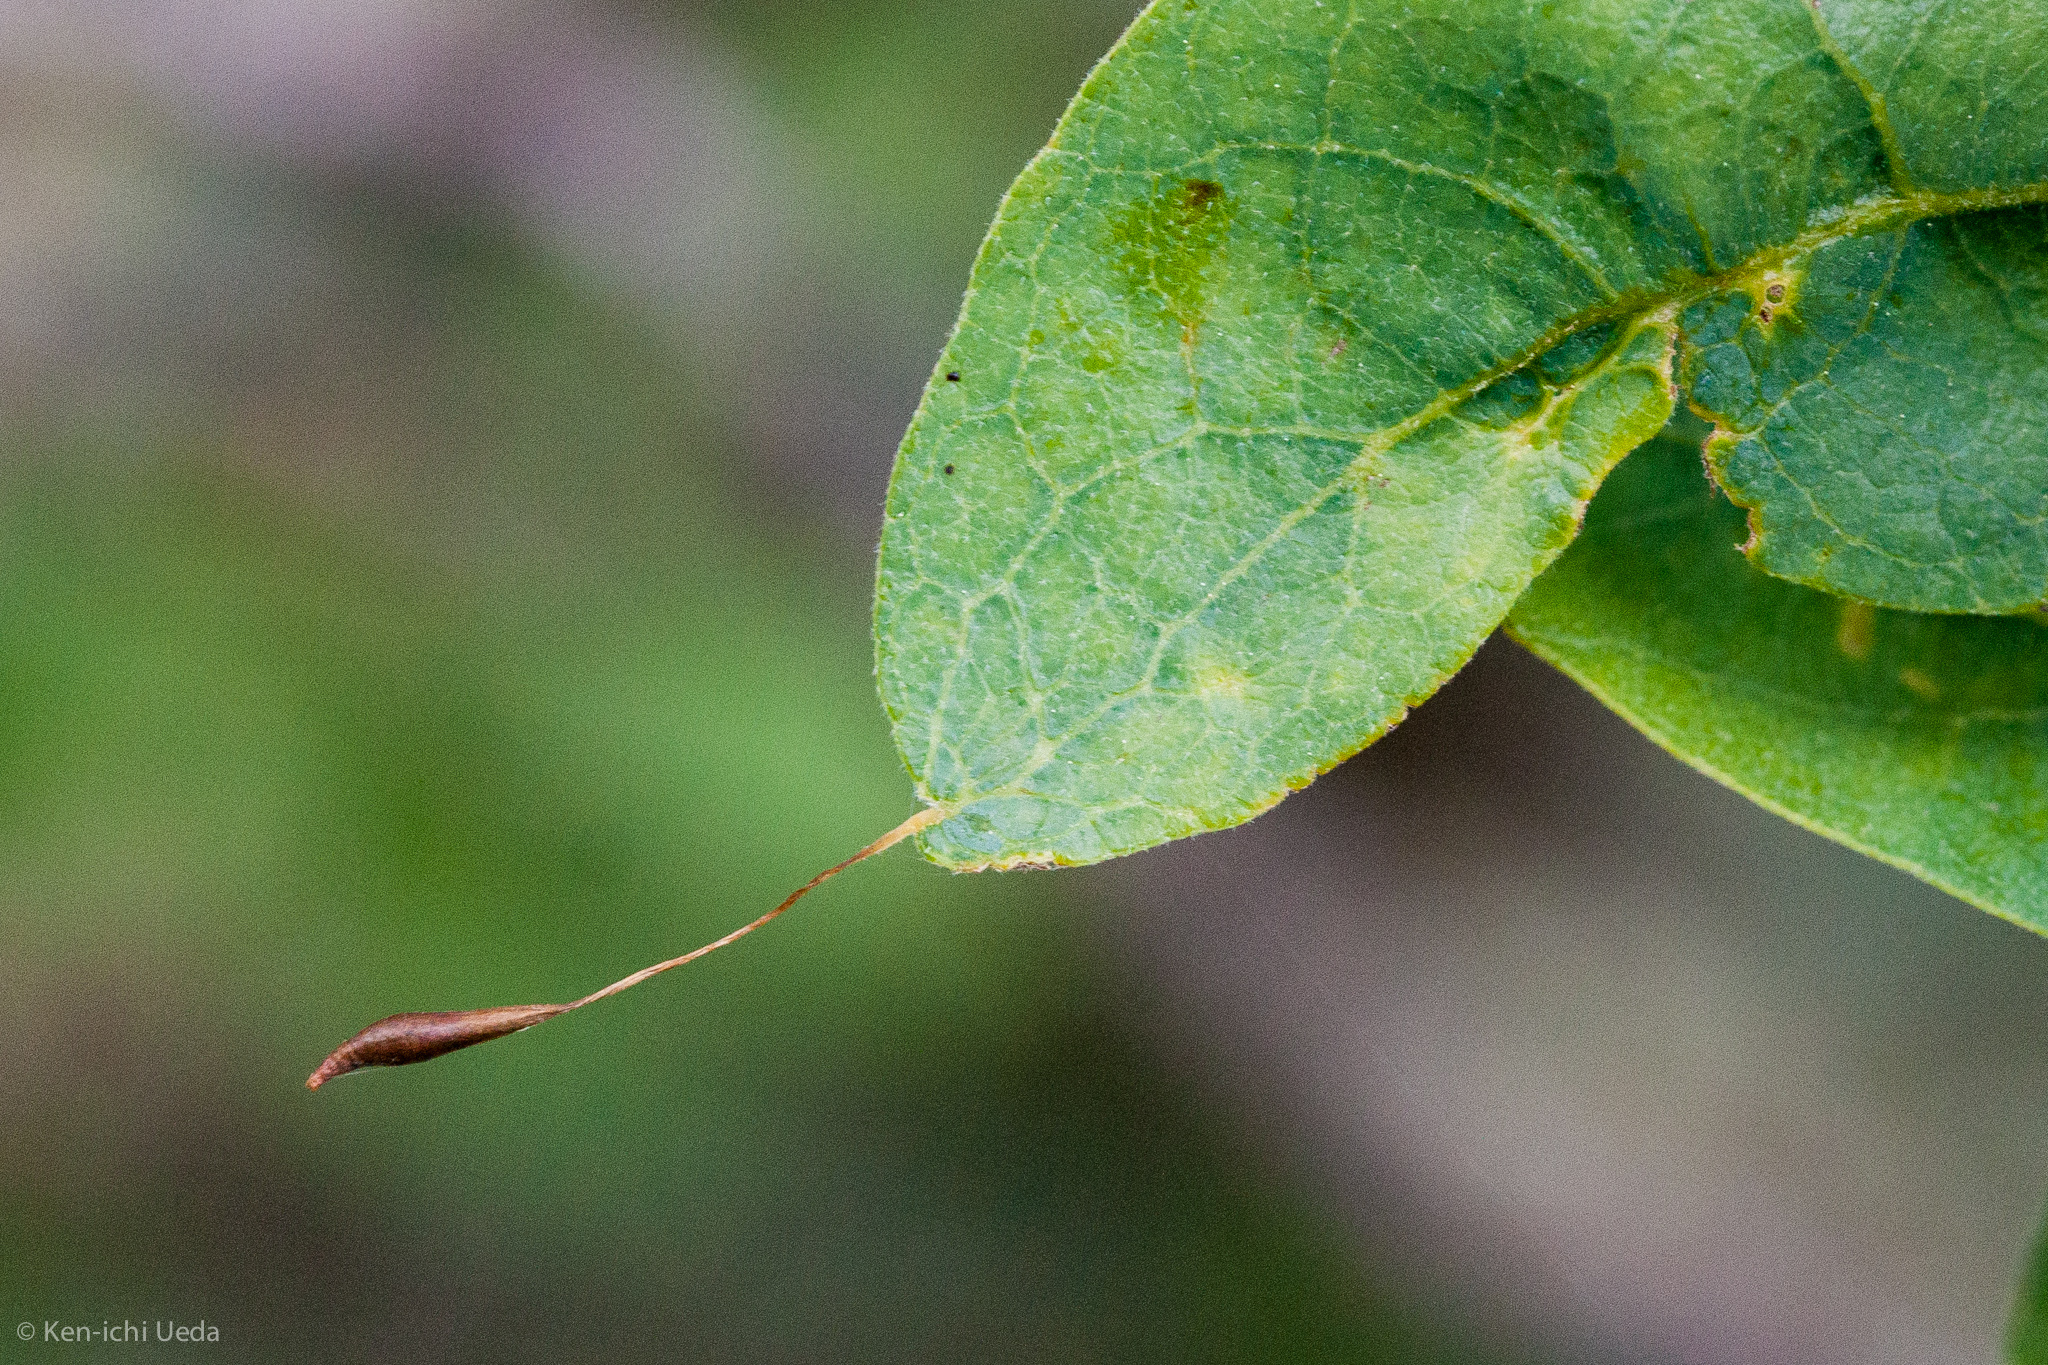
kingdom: Animalia
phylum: Arthropoda
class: Insecta
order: Hymenoptera
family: Cynipidae
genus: Andricus
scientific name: Andricus
